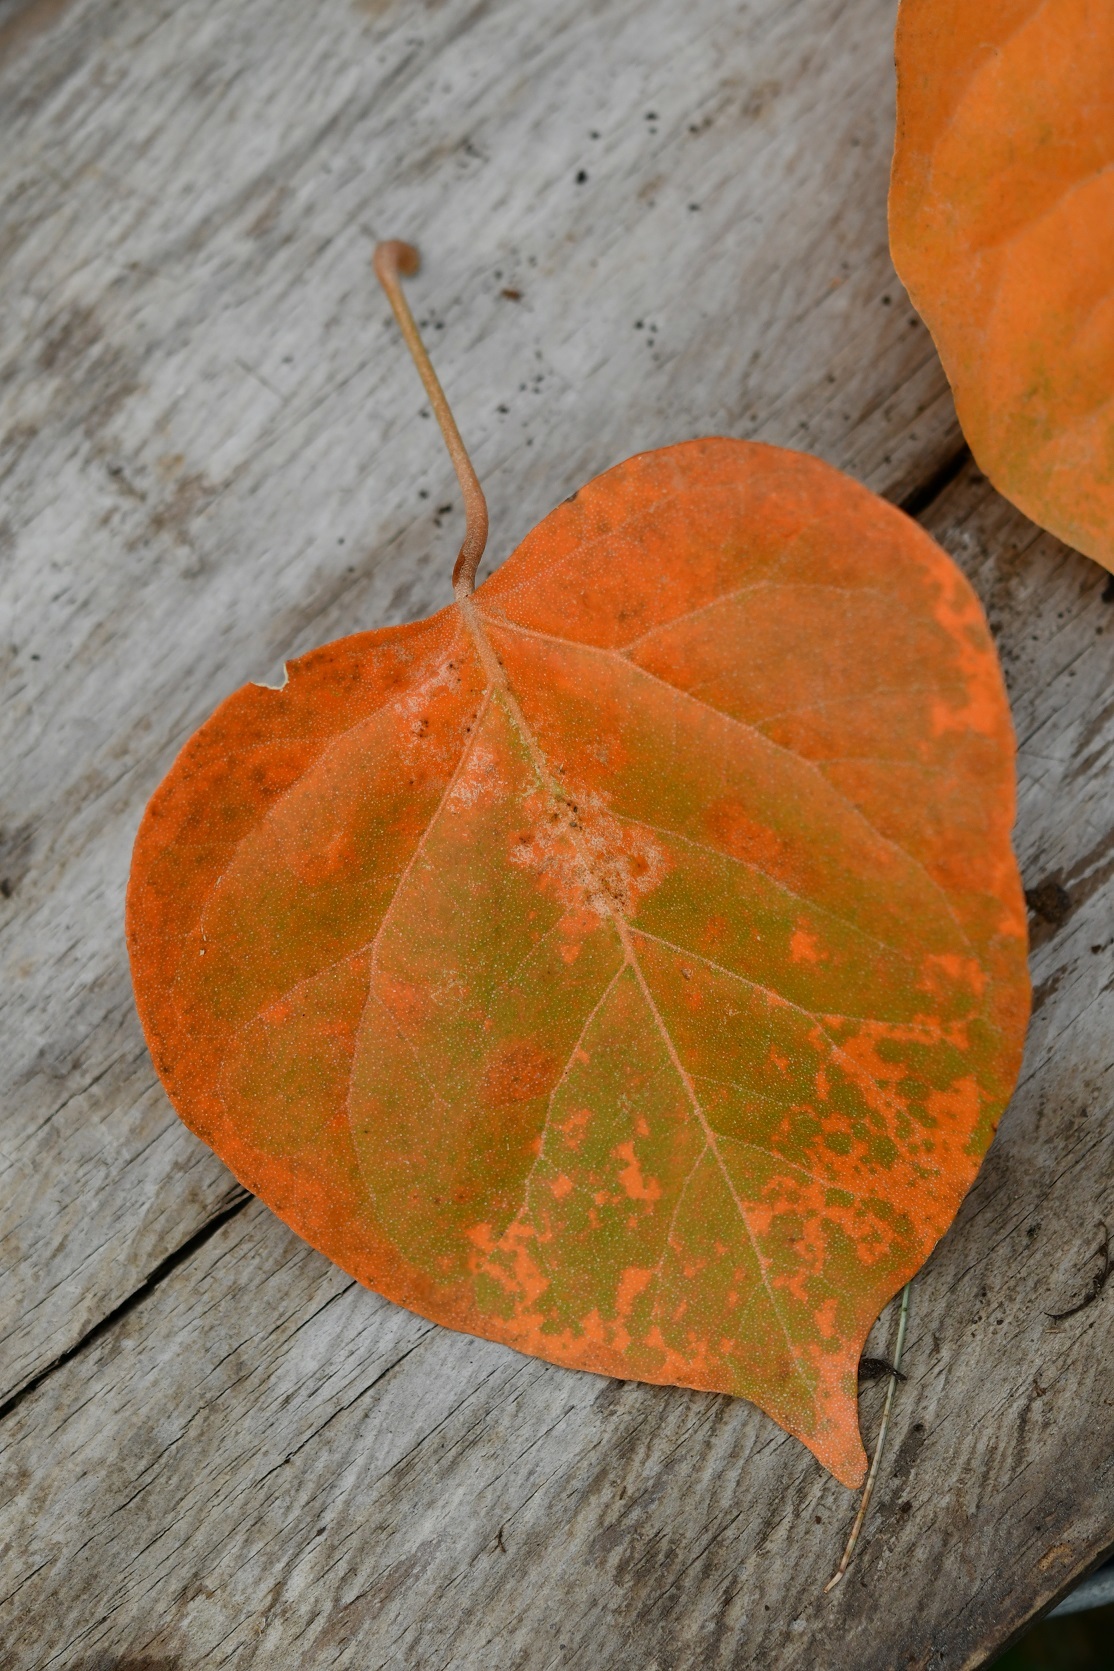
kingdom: Plantae
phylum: Tracheophyta
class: Magnoliopsida
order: Malpighiales
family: Euphorbiaceae
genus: Croton
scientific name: Croton guatemalensis
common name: Copalchi
